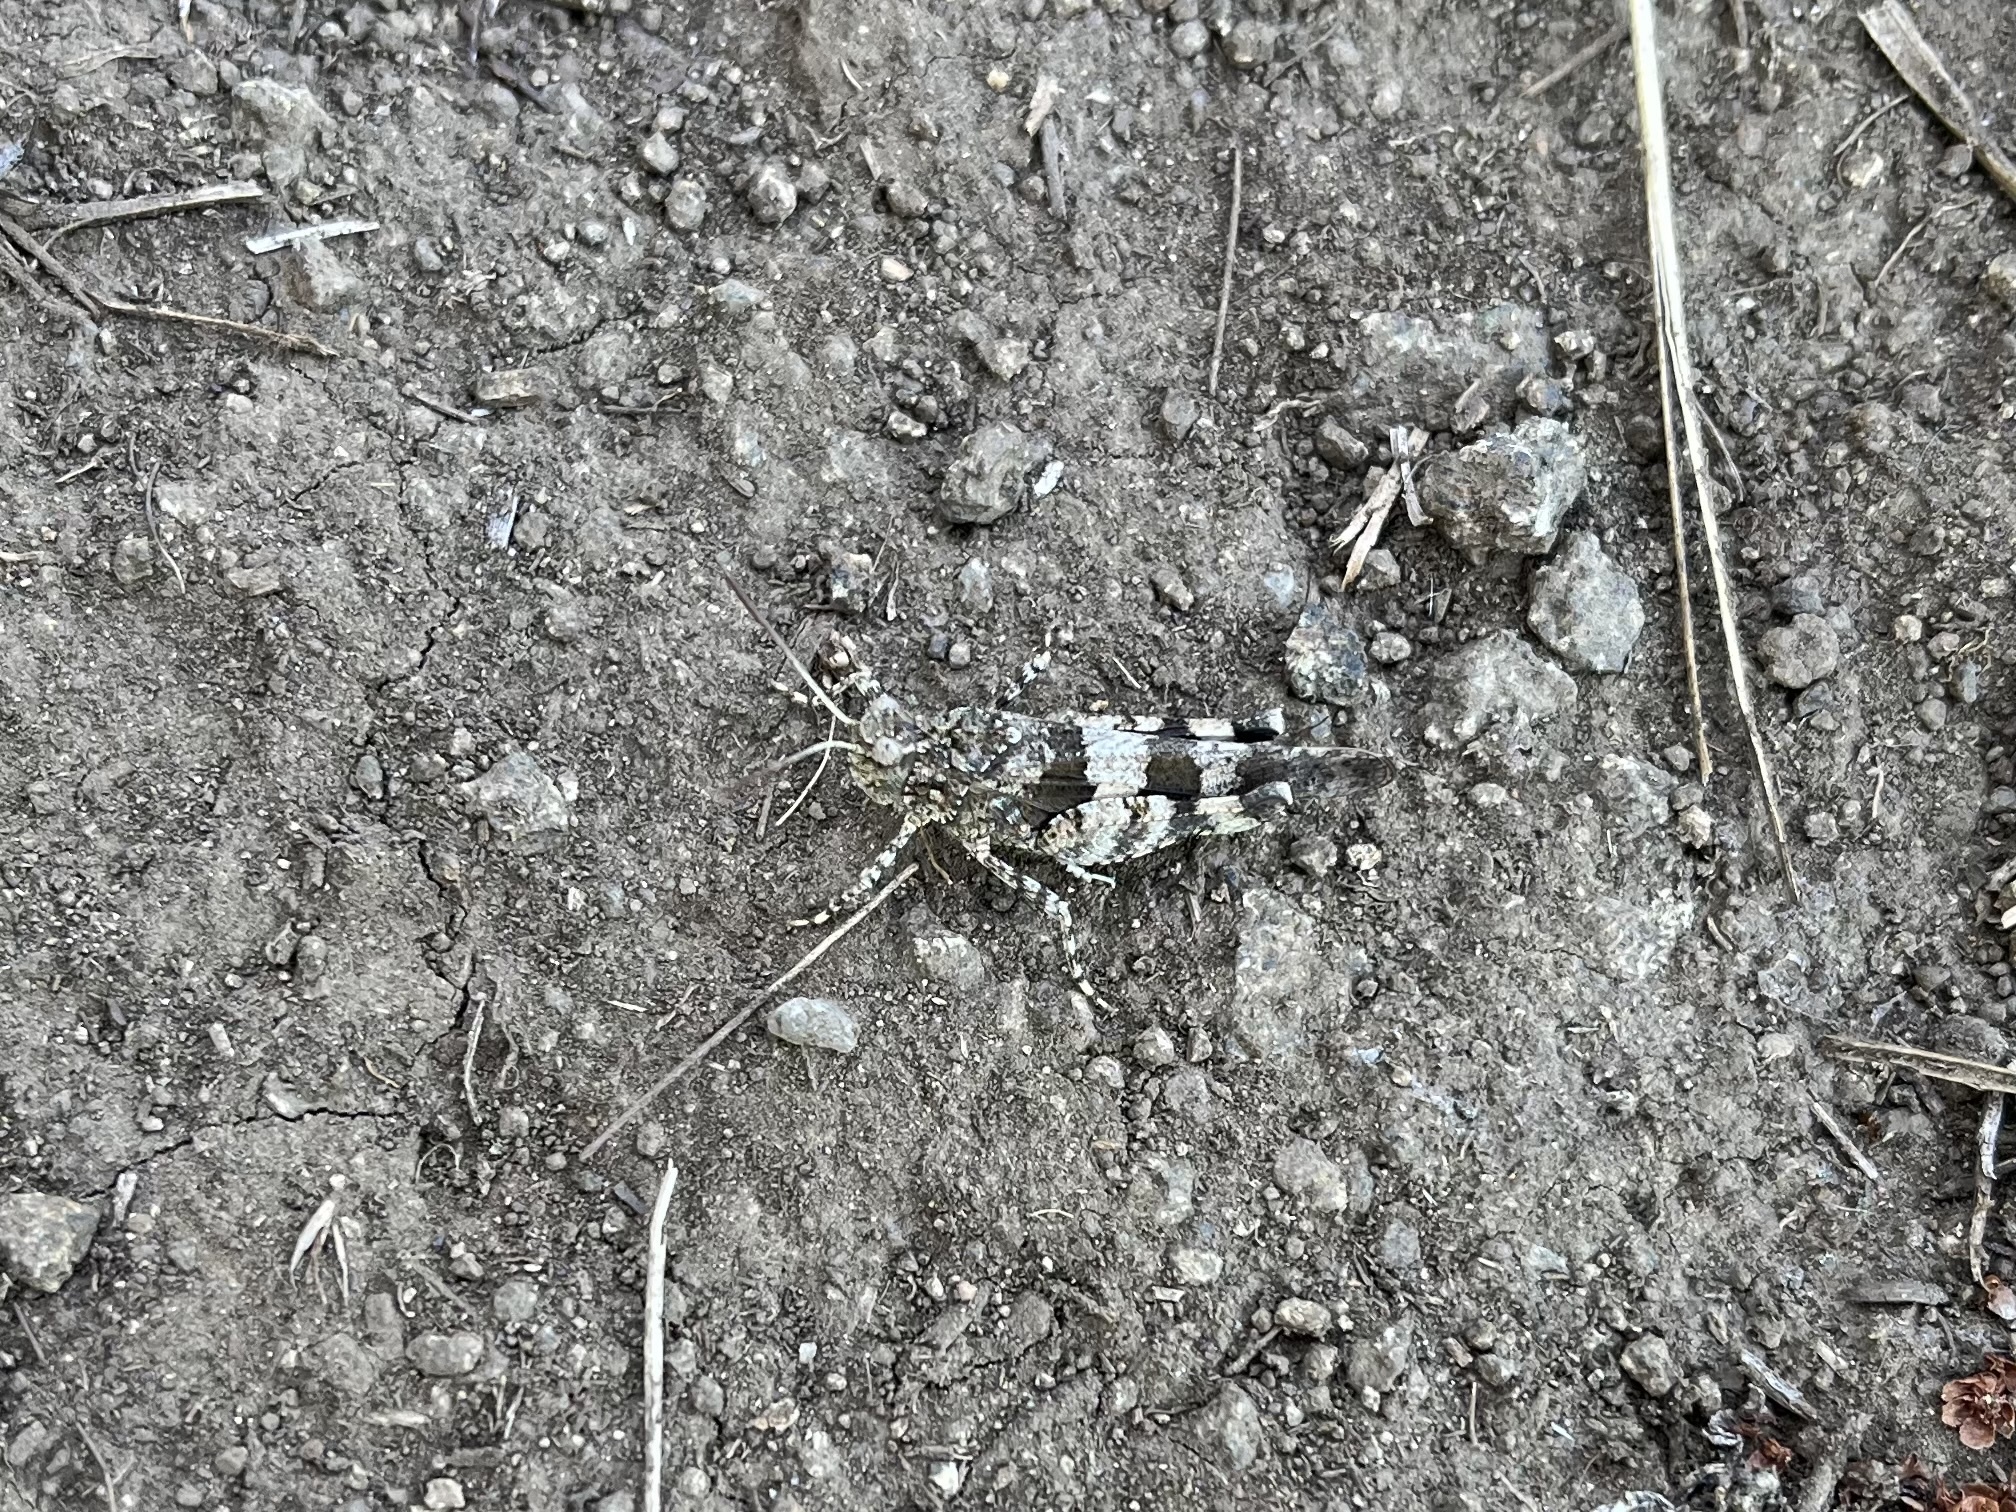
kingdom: Animalia
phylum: Arthropoda
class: Insecta
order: Orthoptera
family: Acrididae
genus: Oedipoda
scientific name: Oedipoda caerulescens
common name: Blue-winged grasshopper
